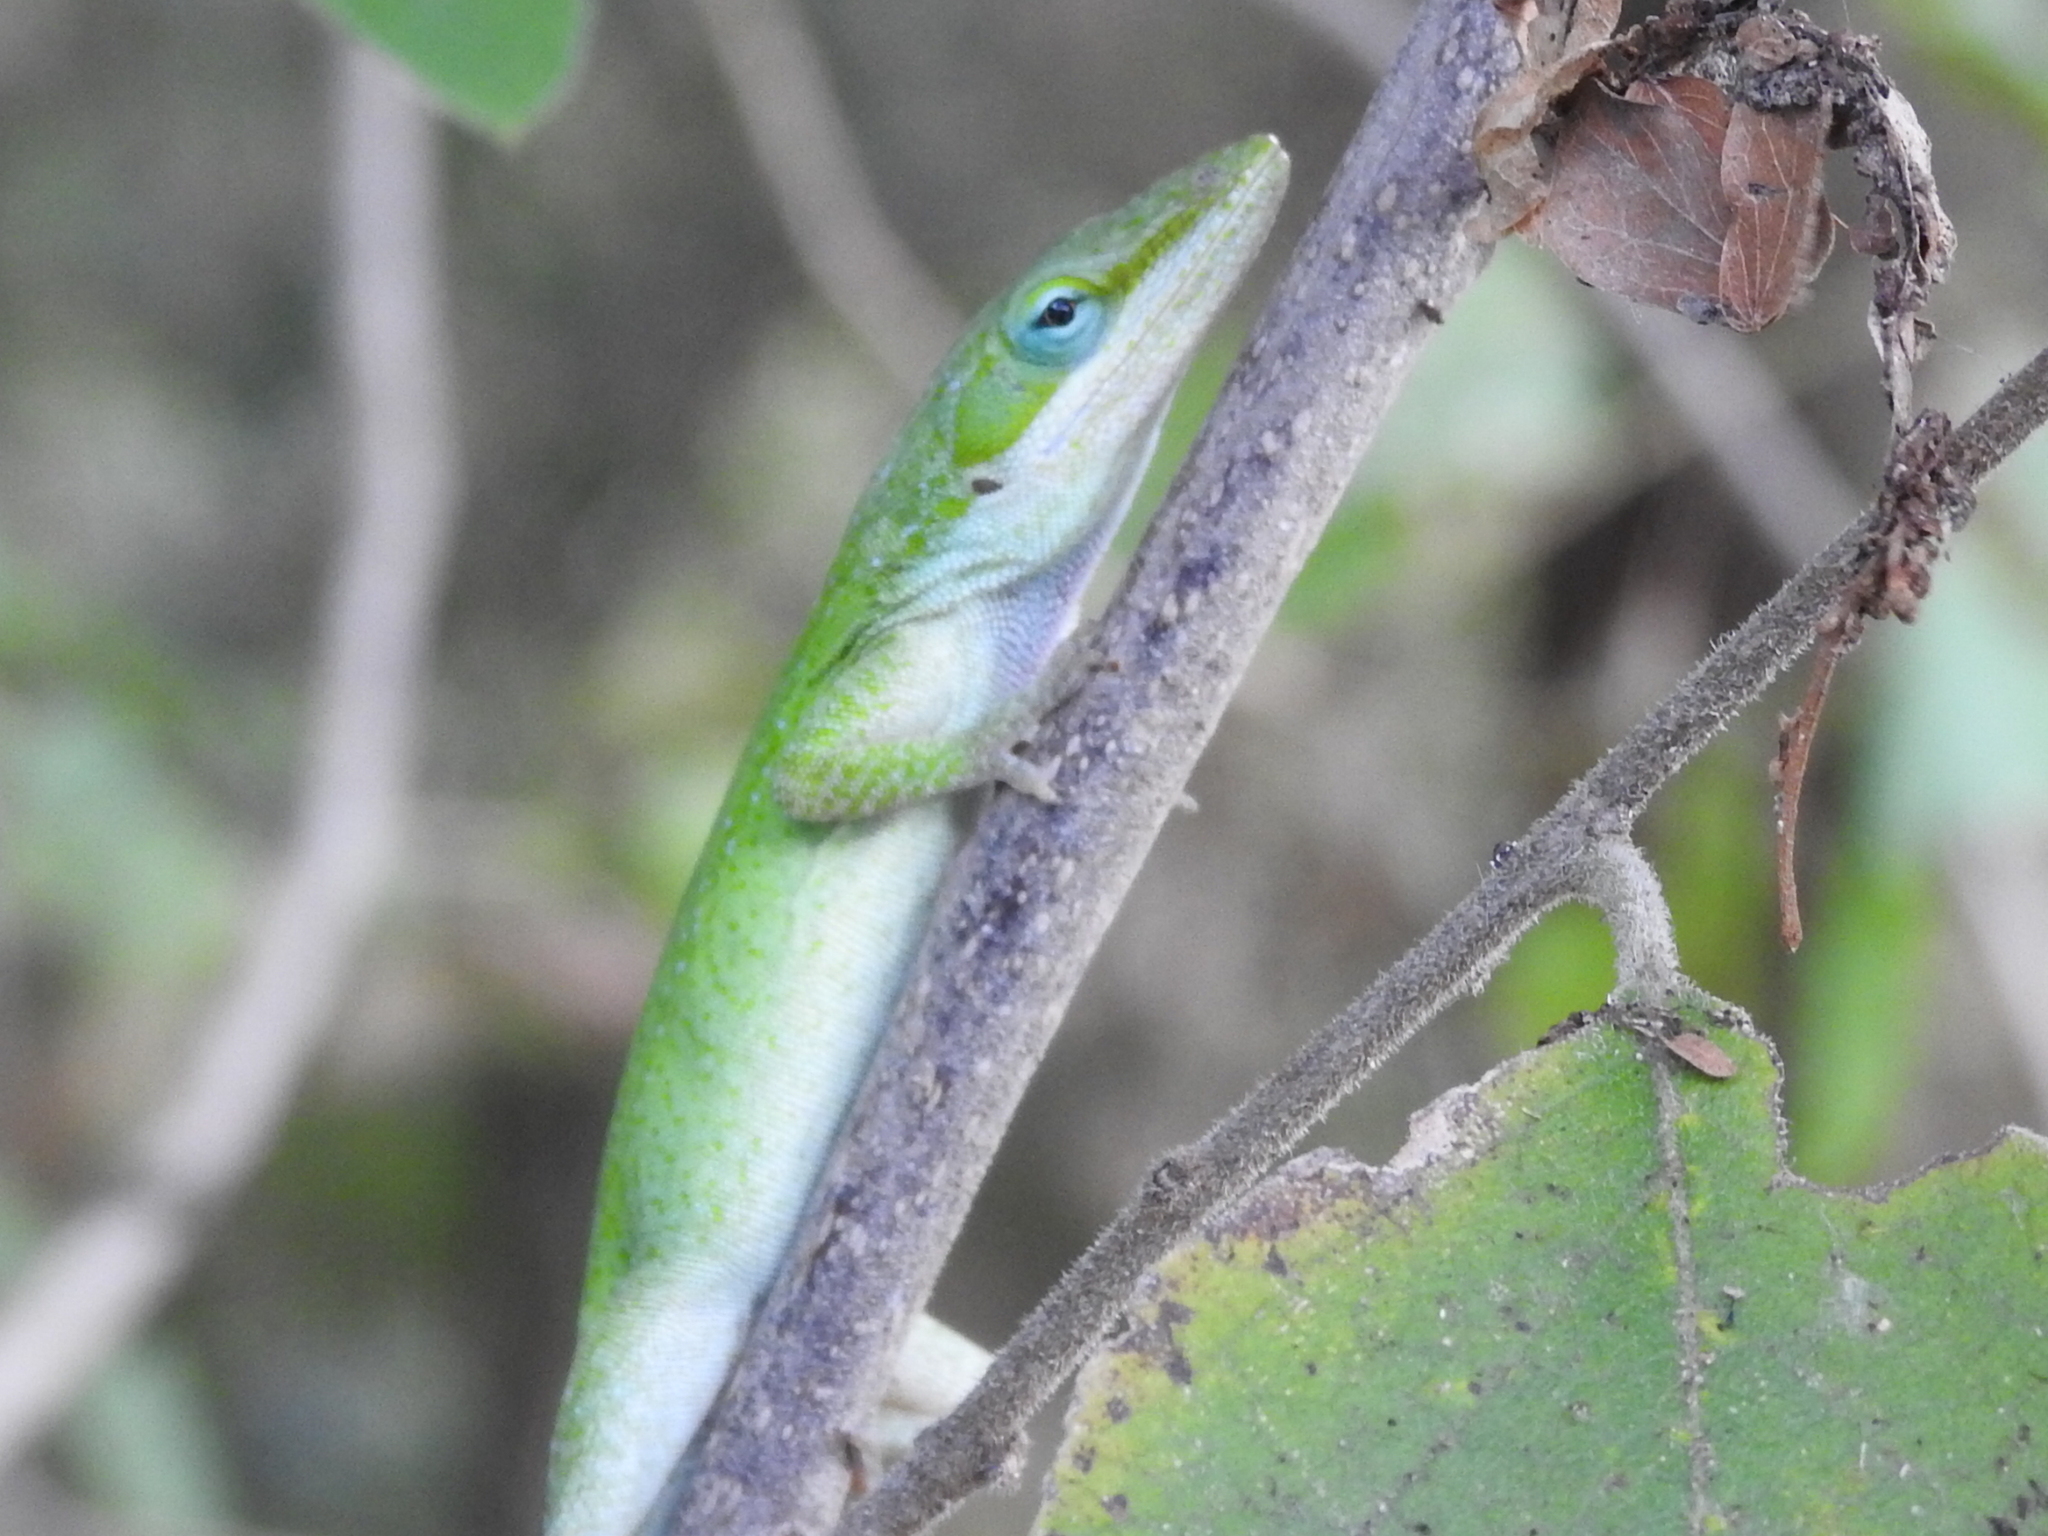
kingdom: Animalia
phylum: Chordata
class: Squamata
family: Dactyloidae
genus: Anolis
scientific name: Anolis carolinensis
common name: Green anole
